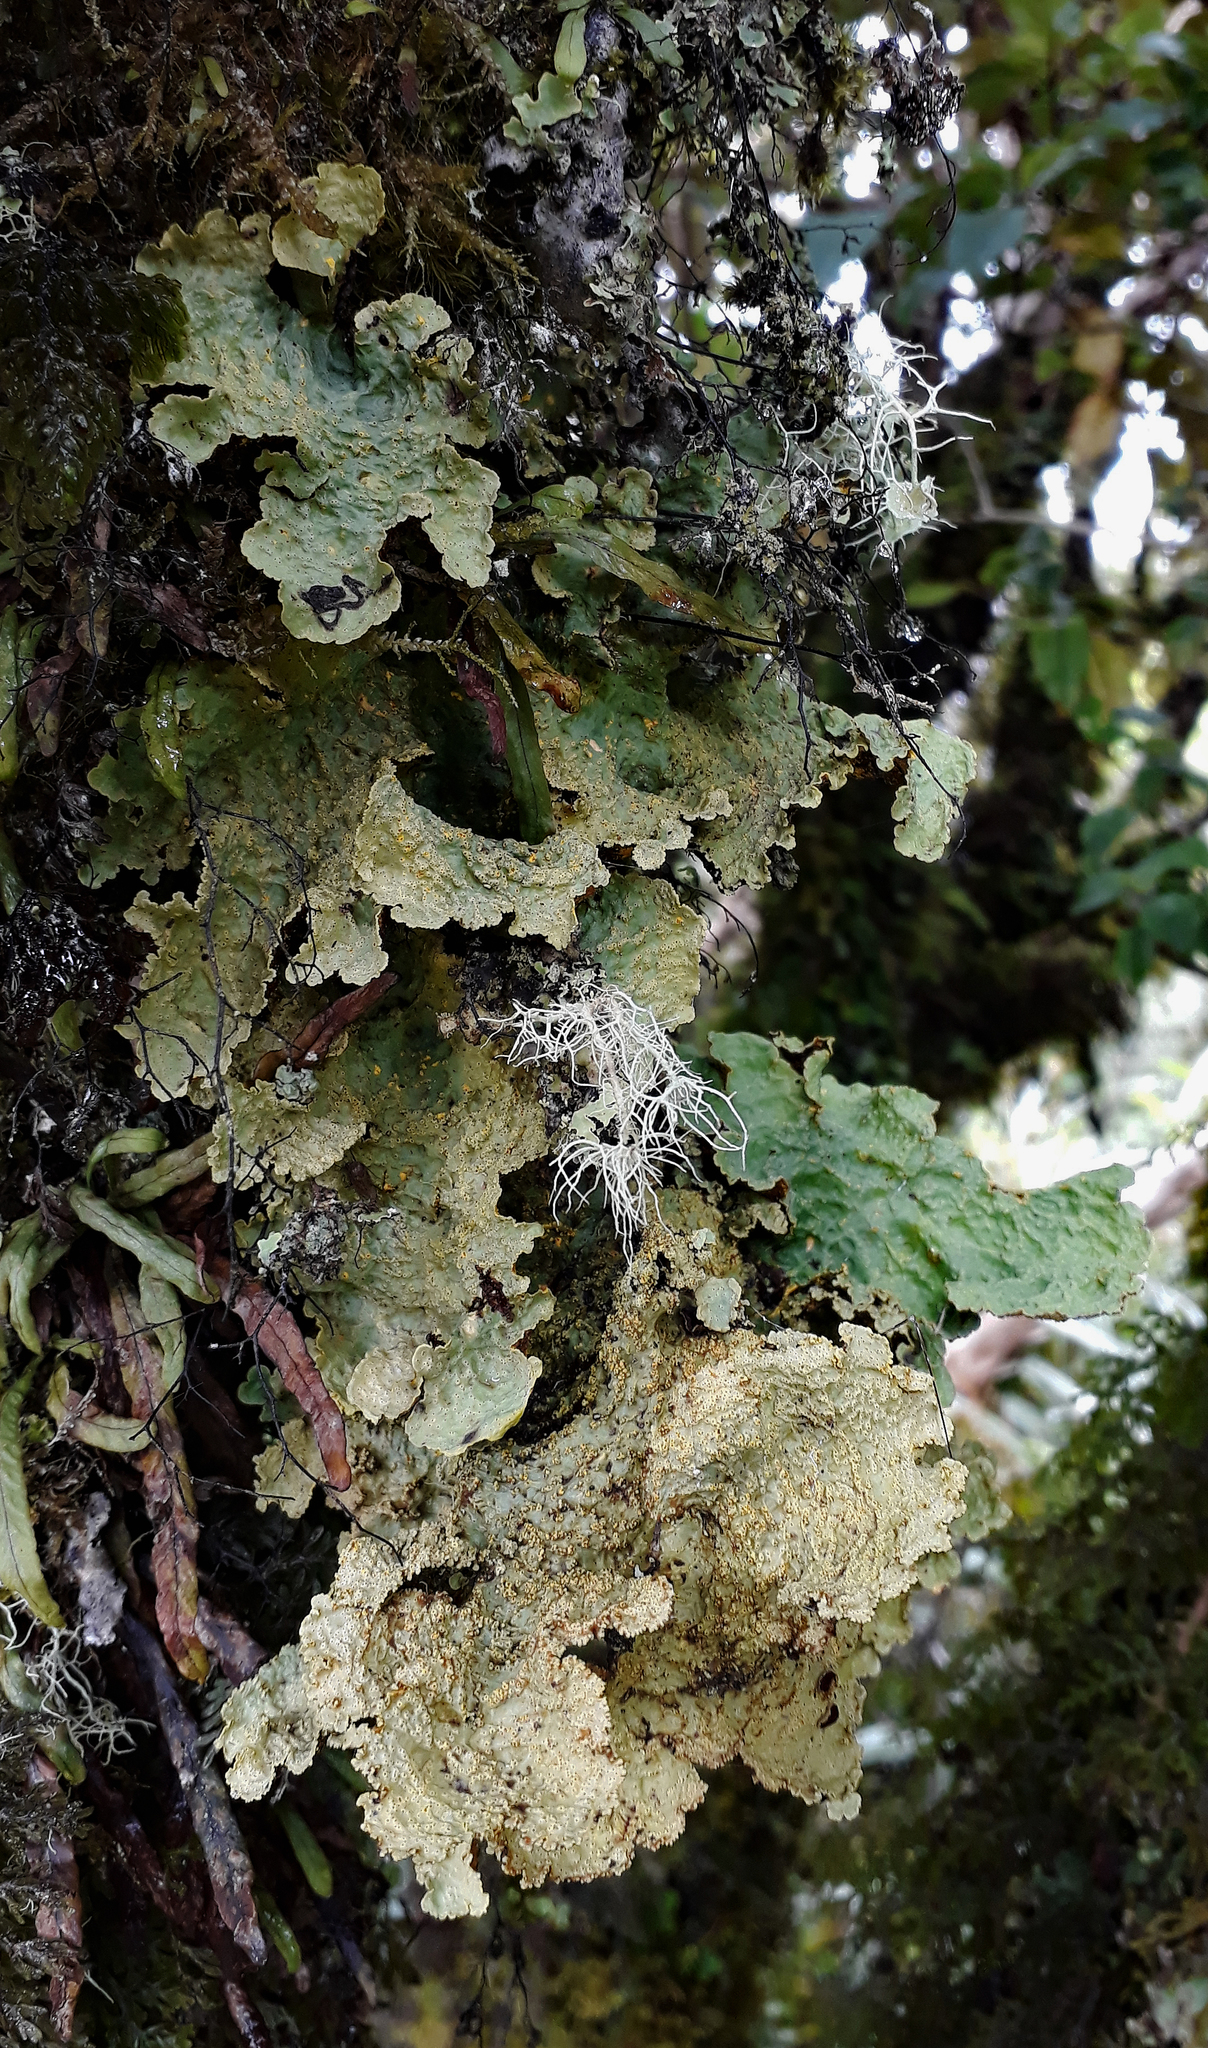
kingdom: Fungi
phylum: Ascomycota
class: Lecanoromycetes
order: Peltigerales
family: Lobariaceae
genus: Yarrumia
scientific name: Yarrumia coronata
